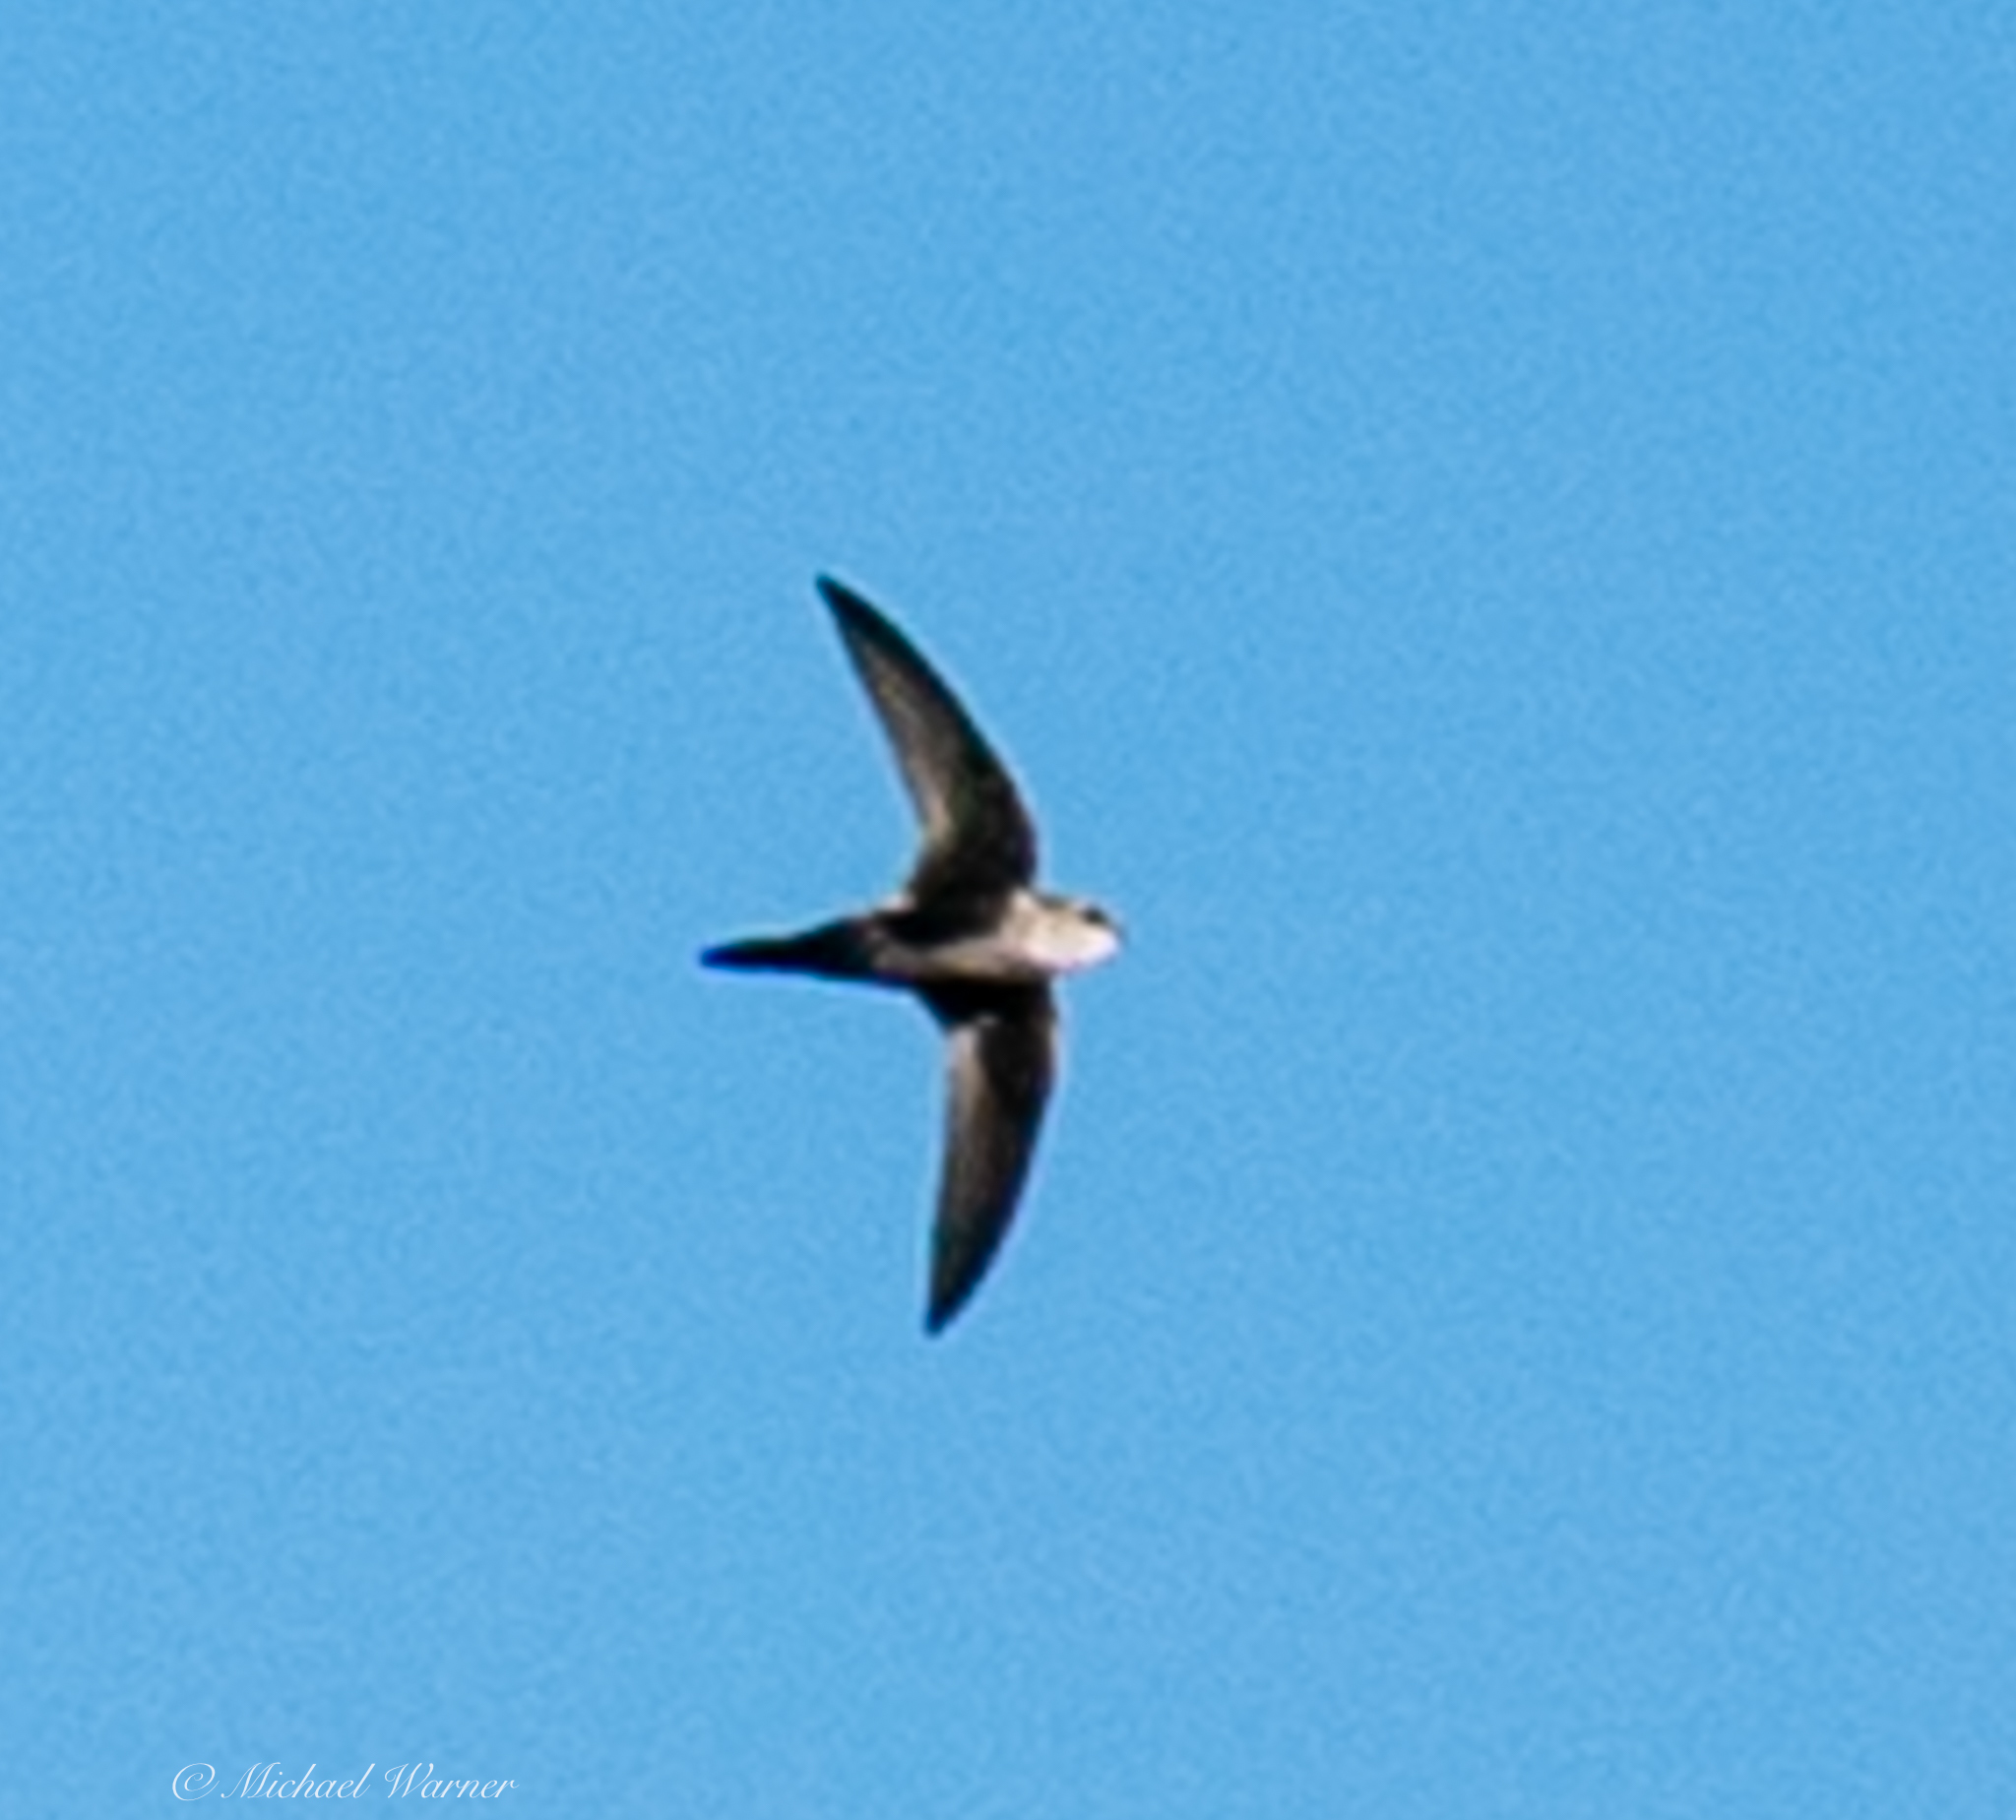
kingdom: Animalia
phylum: Chordata
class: Aves
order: Apodiformes
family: Apodidae
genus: Aeronautes
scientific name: Aeronautes saxatalis
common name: White-throated swift
